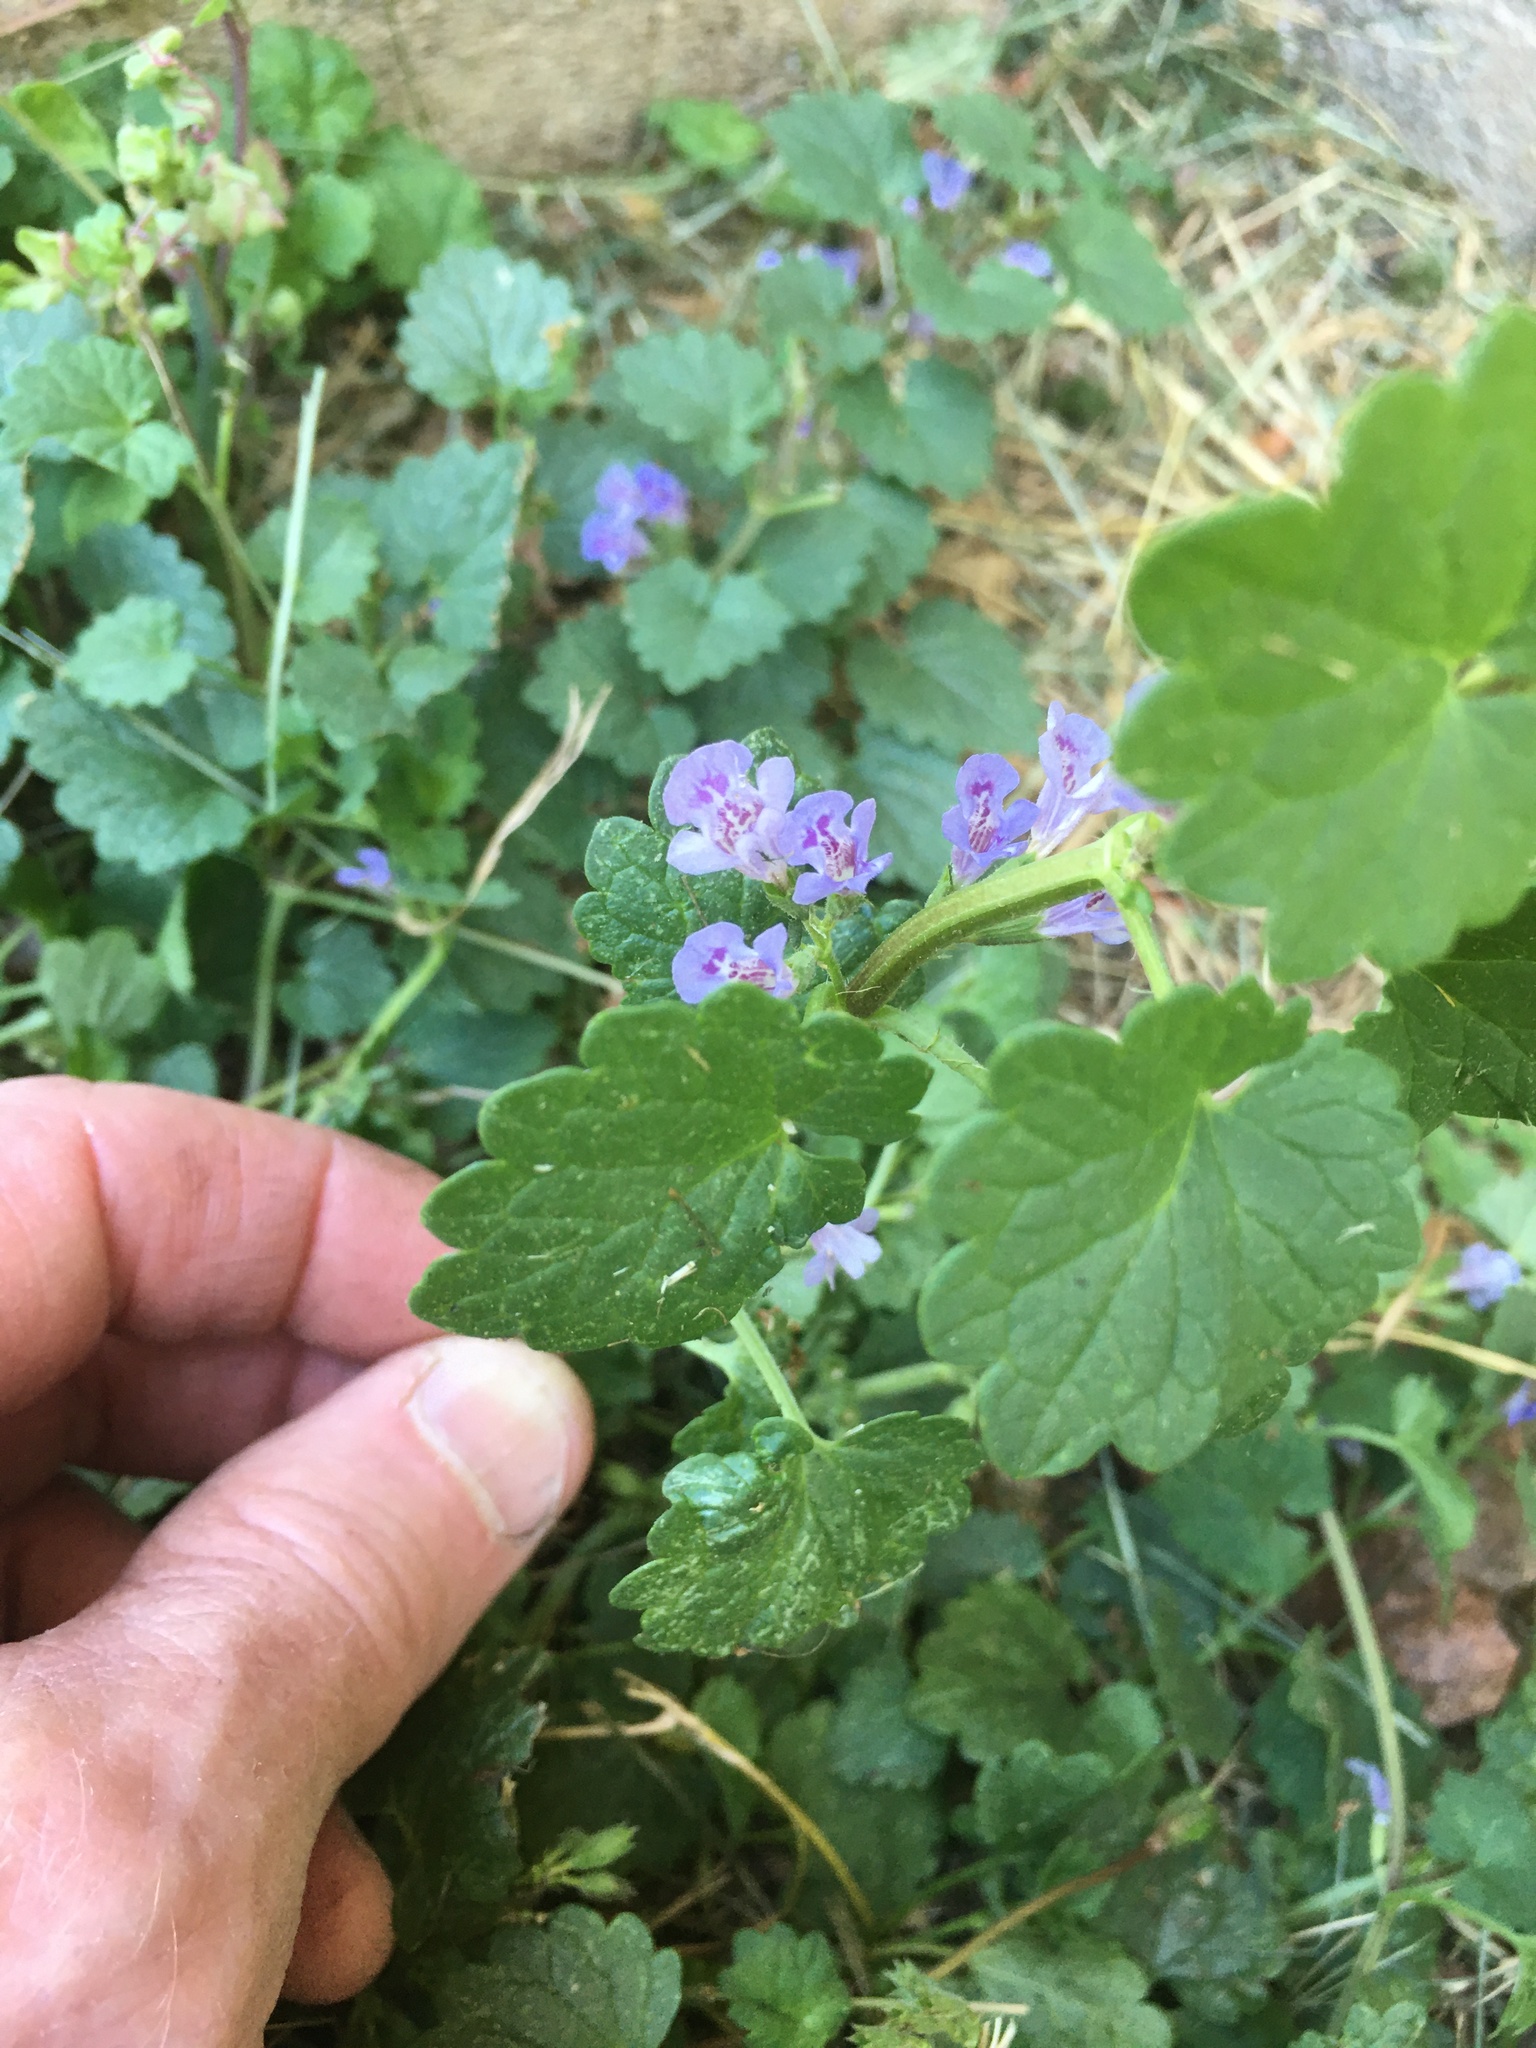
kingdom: Plantae
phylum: Tracheophyta
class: Magnoliopsida
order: Lamiales
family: Lamiaceae
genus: Glechoma
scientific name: Glechoma hederacea
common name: Ground ivy
